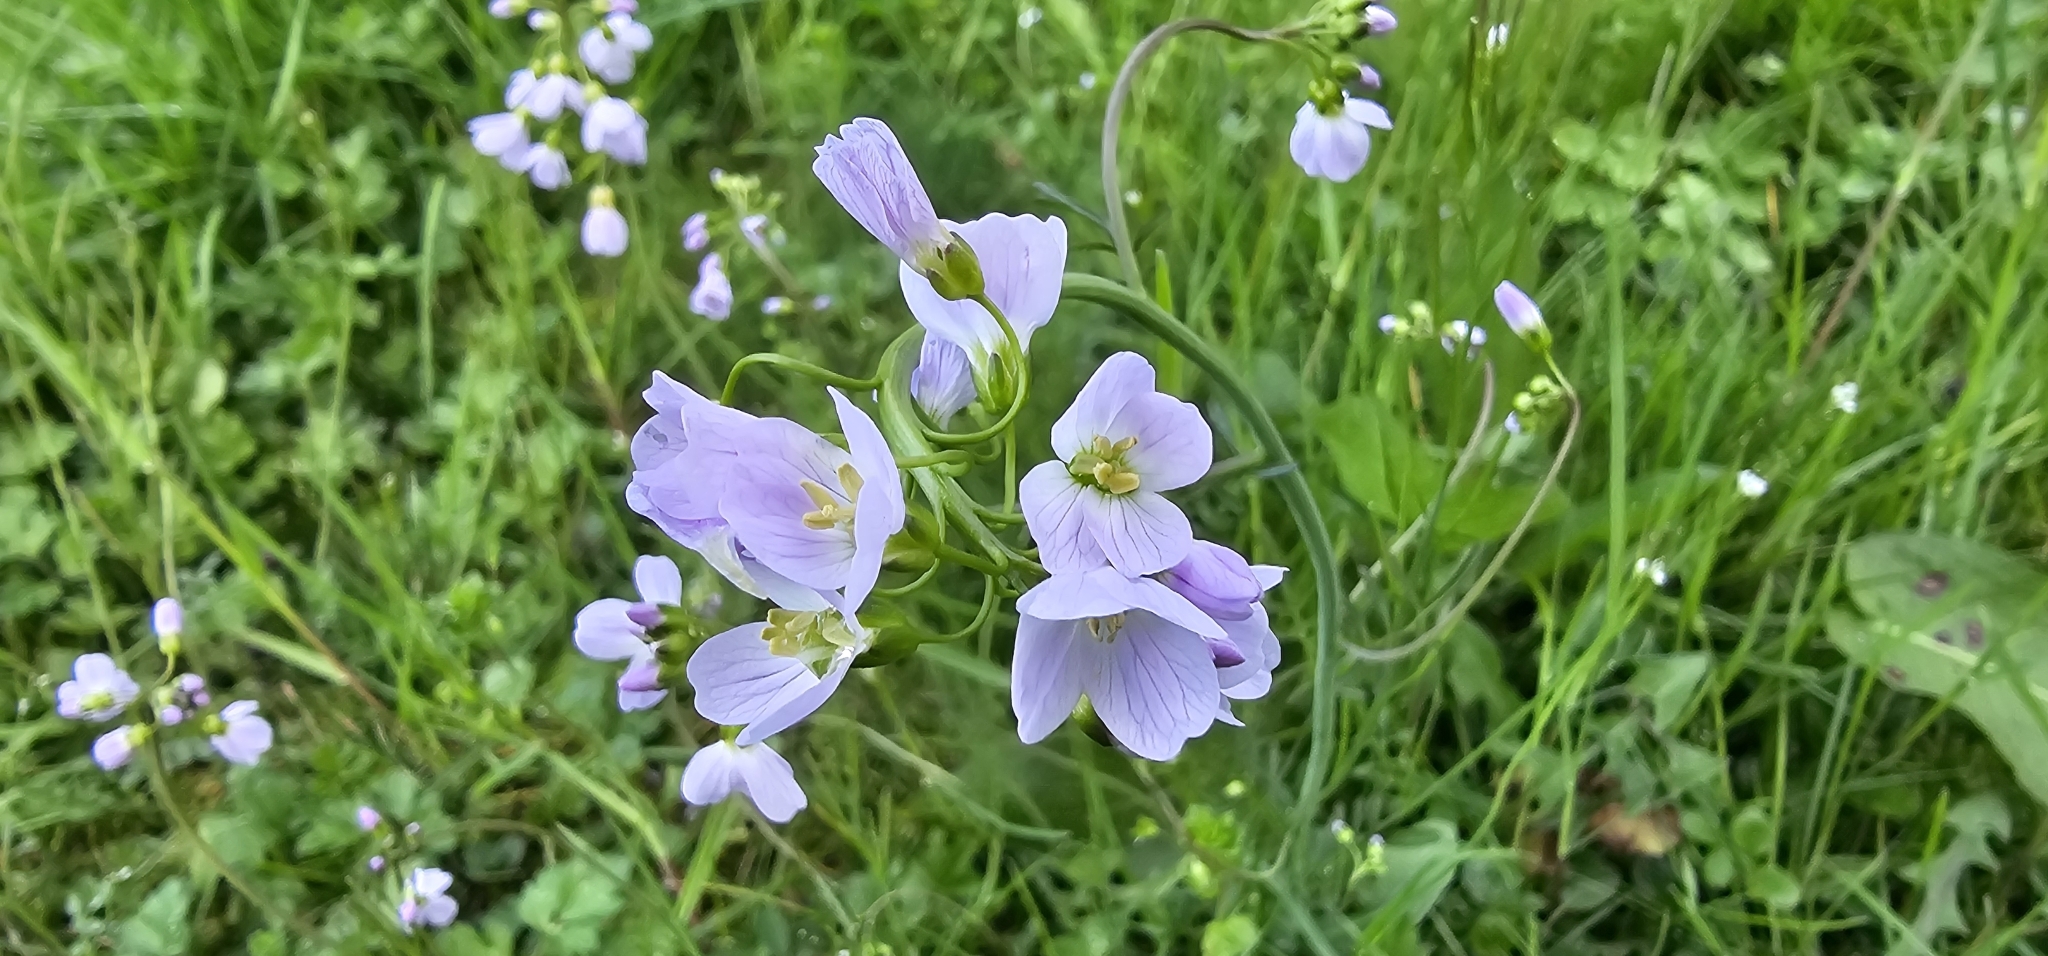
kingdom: Plantae
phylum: Tracheophyta
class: Magnoliopsida
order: Brassicales
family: Brassicaceae
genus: Cardamine
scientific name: Cardamine pratensis
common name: Cuckoo flower
